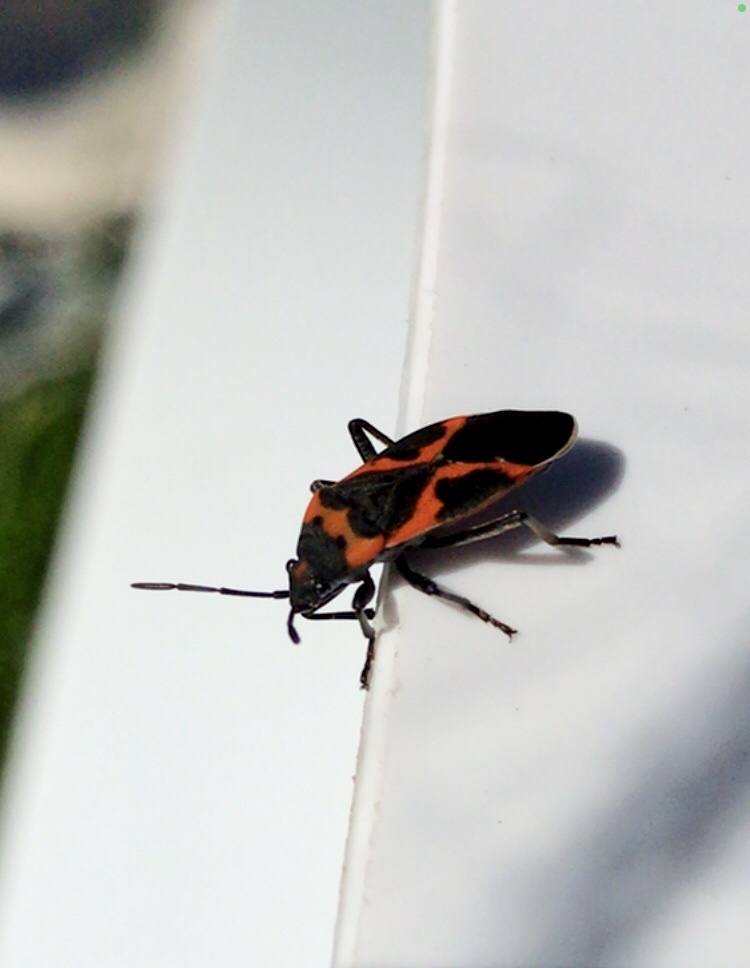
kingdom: Animalia
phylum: Arthropoda
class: Insecta
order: Hemiptera
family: Lygaeidae
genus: Lygaeus
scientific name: Lygaeus kalmii
